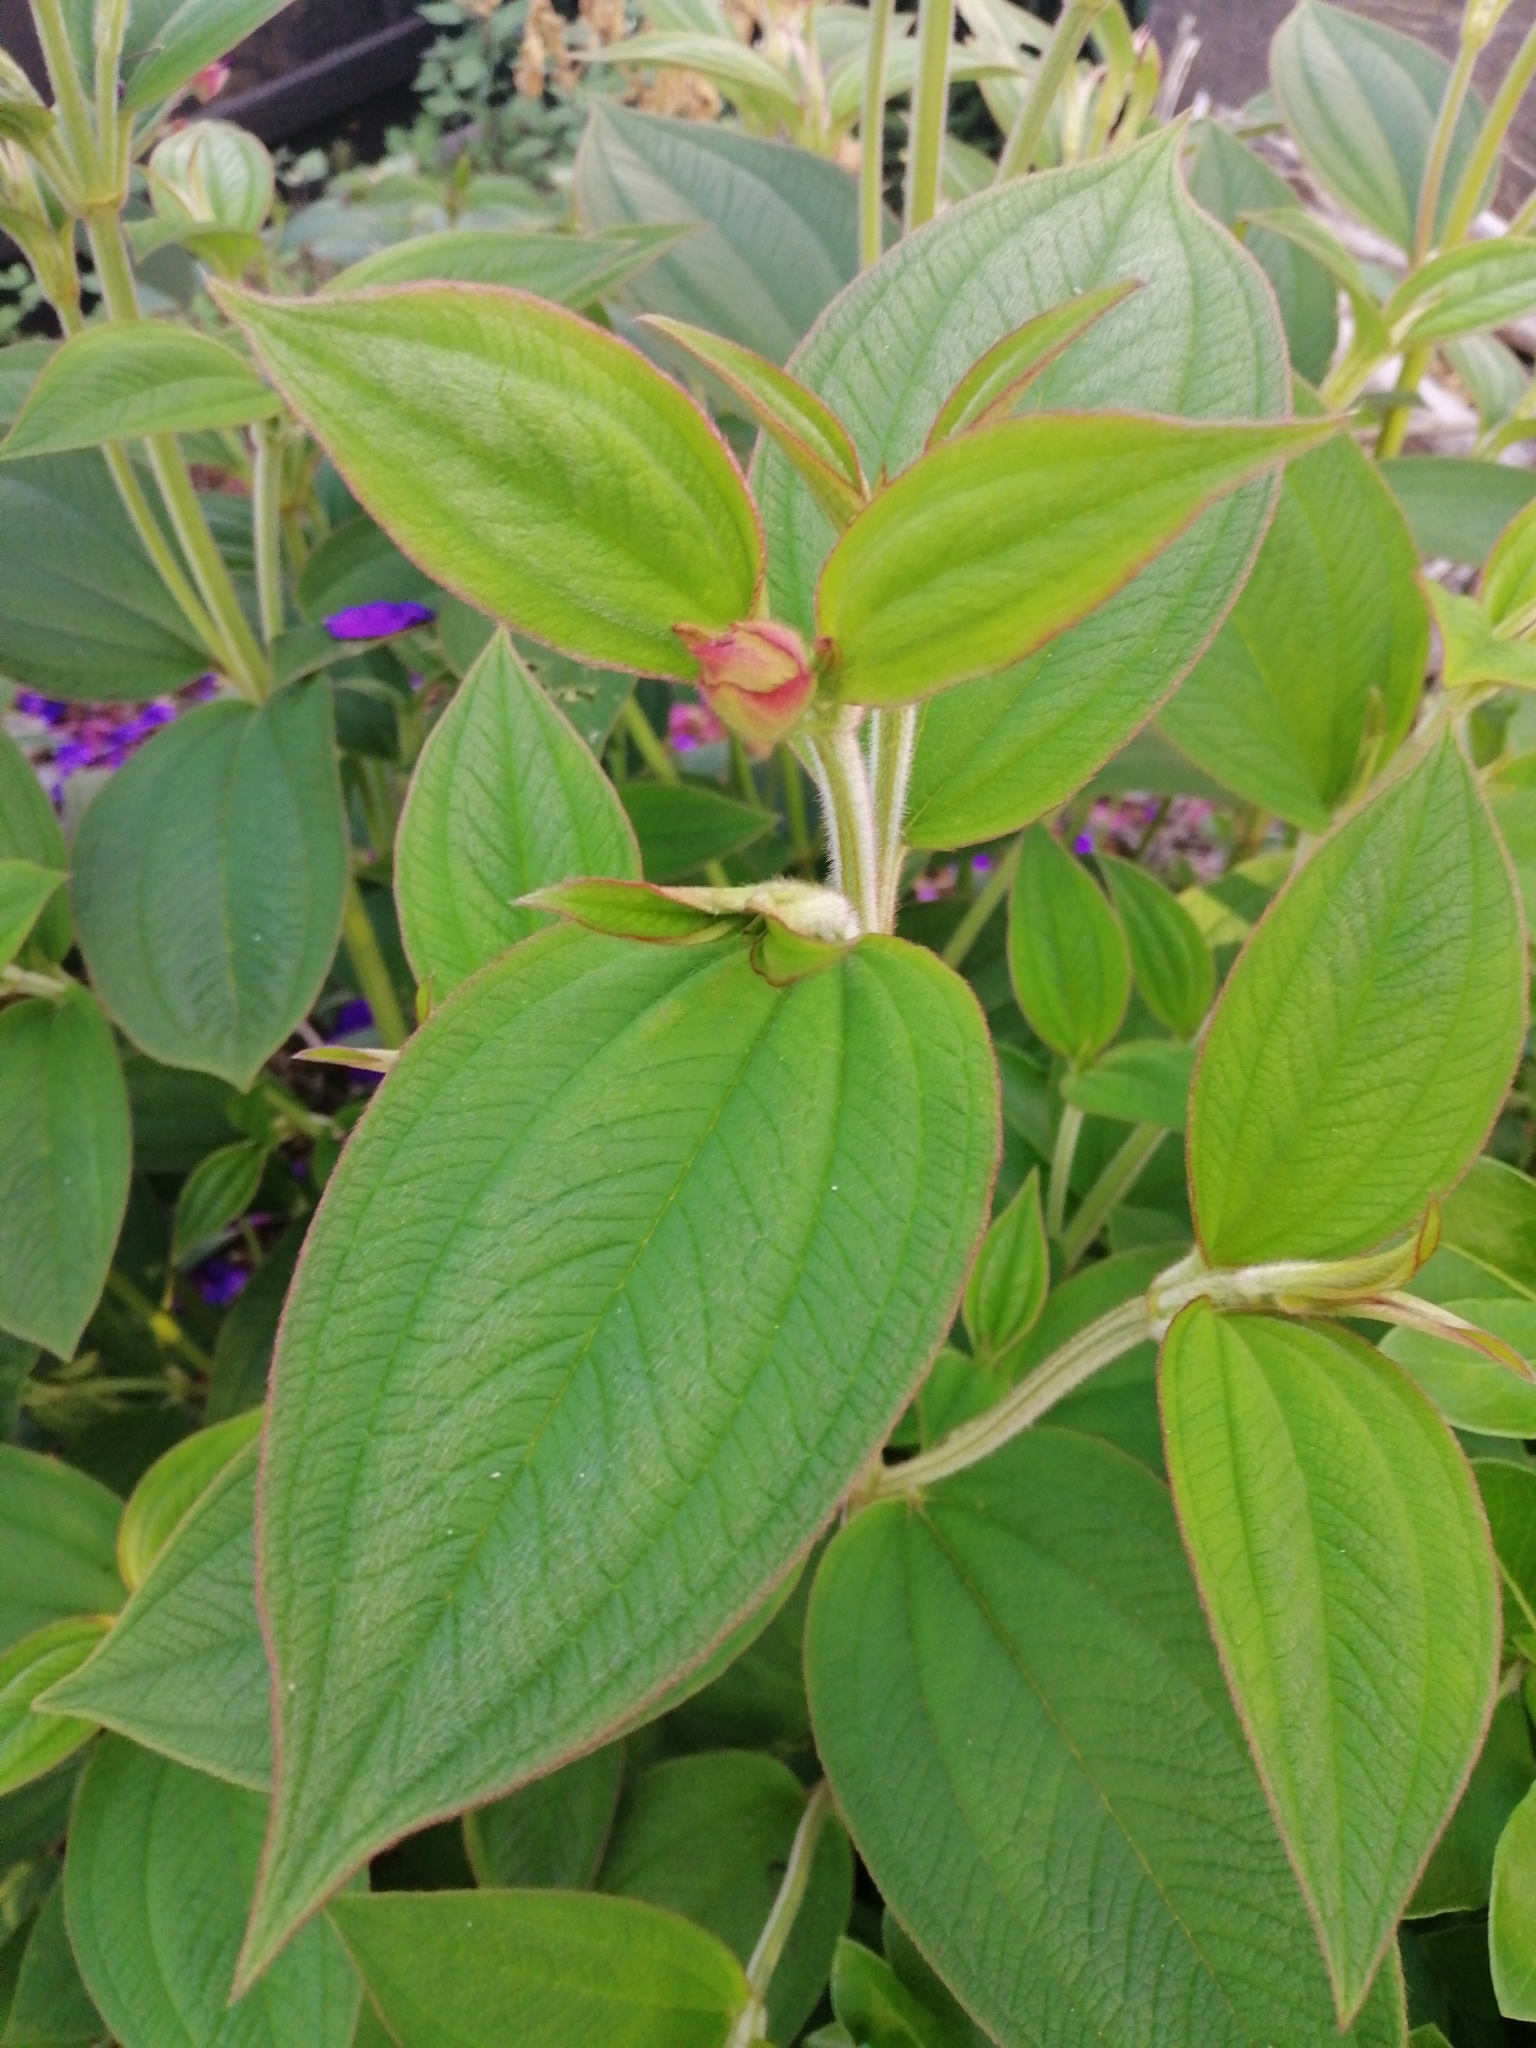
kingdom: Plantae
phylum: Tracheophyta
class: Magnoliopsida
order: Myrtales
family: Melastomataceae
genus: Pleroma
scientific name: Pleroma urvilleanum
